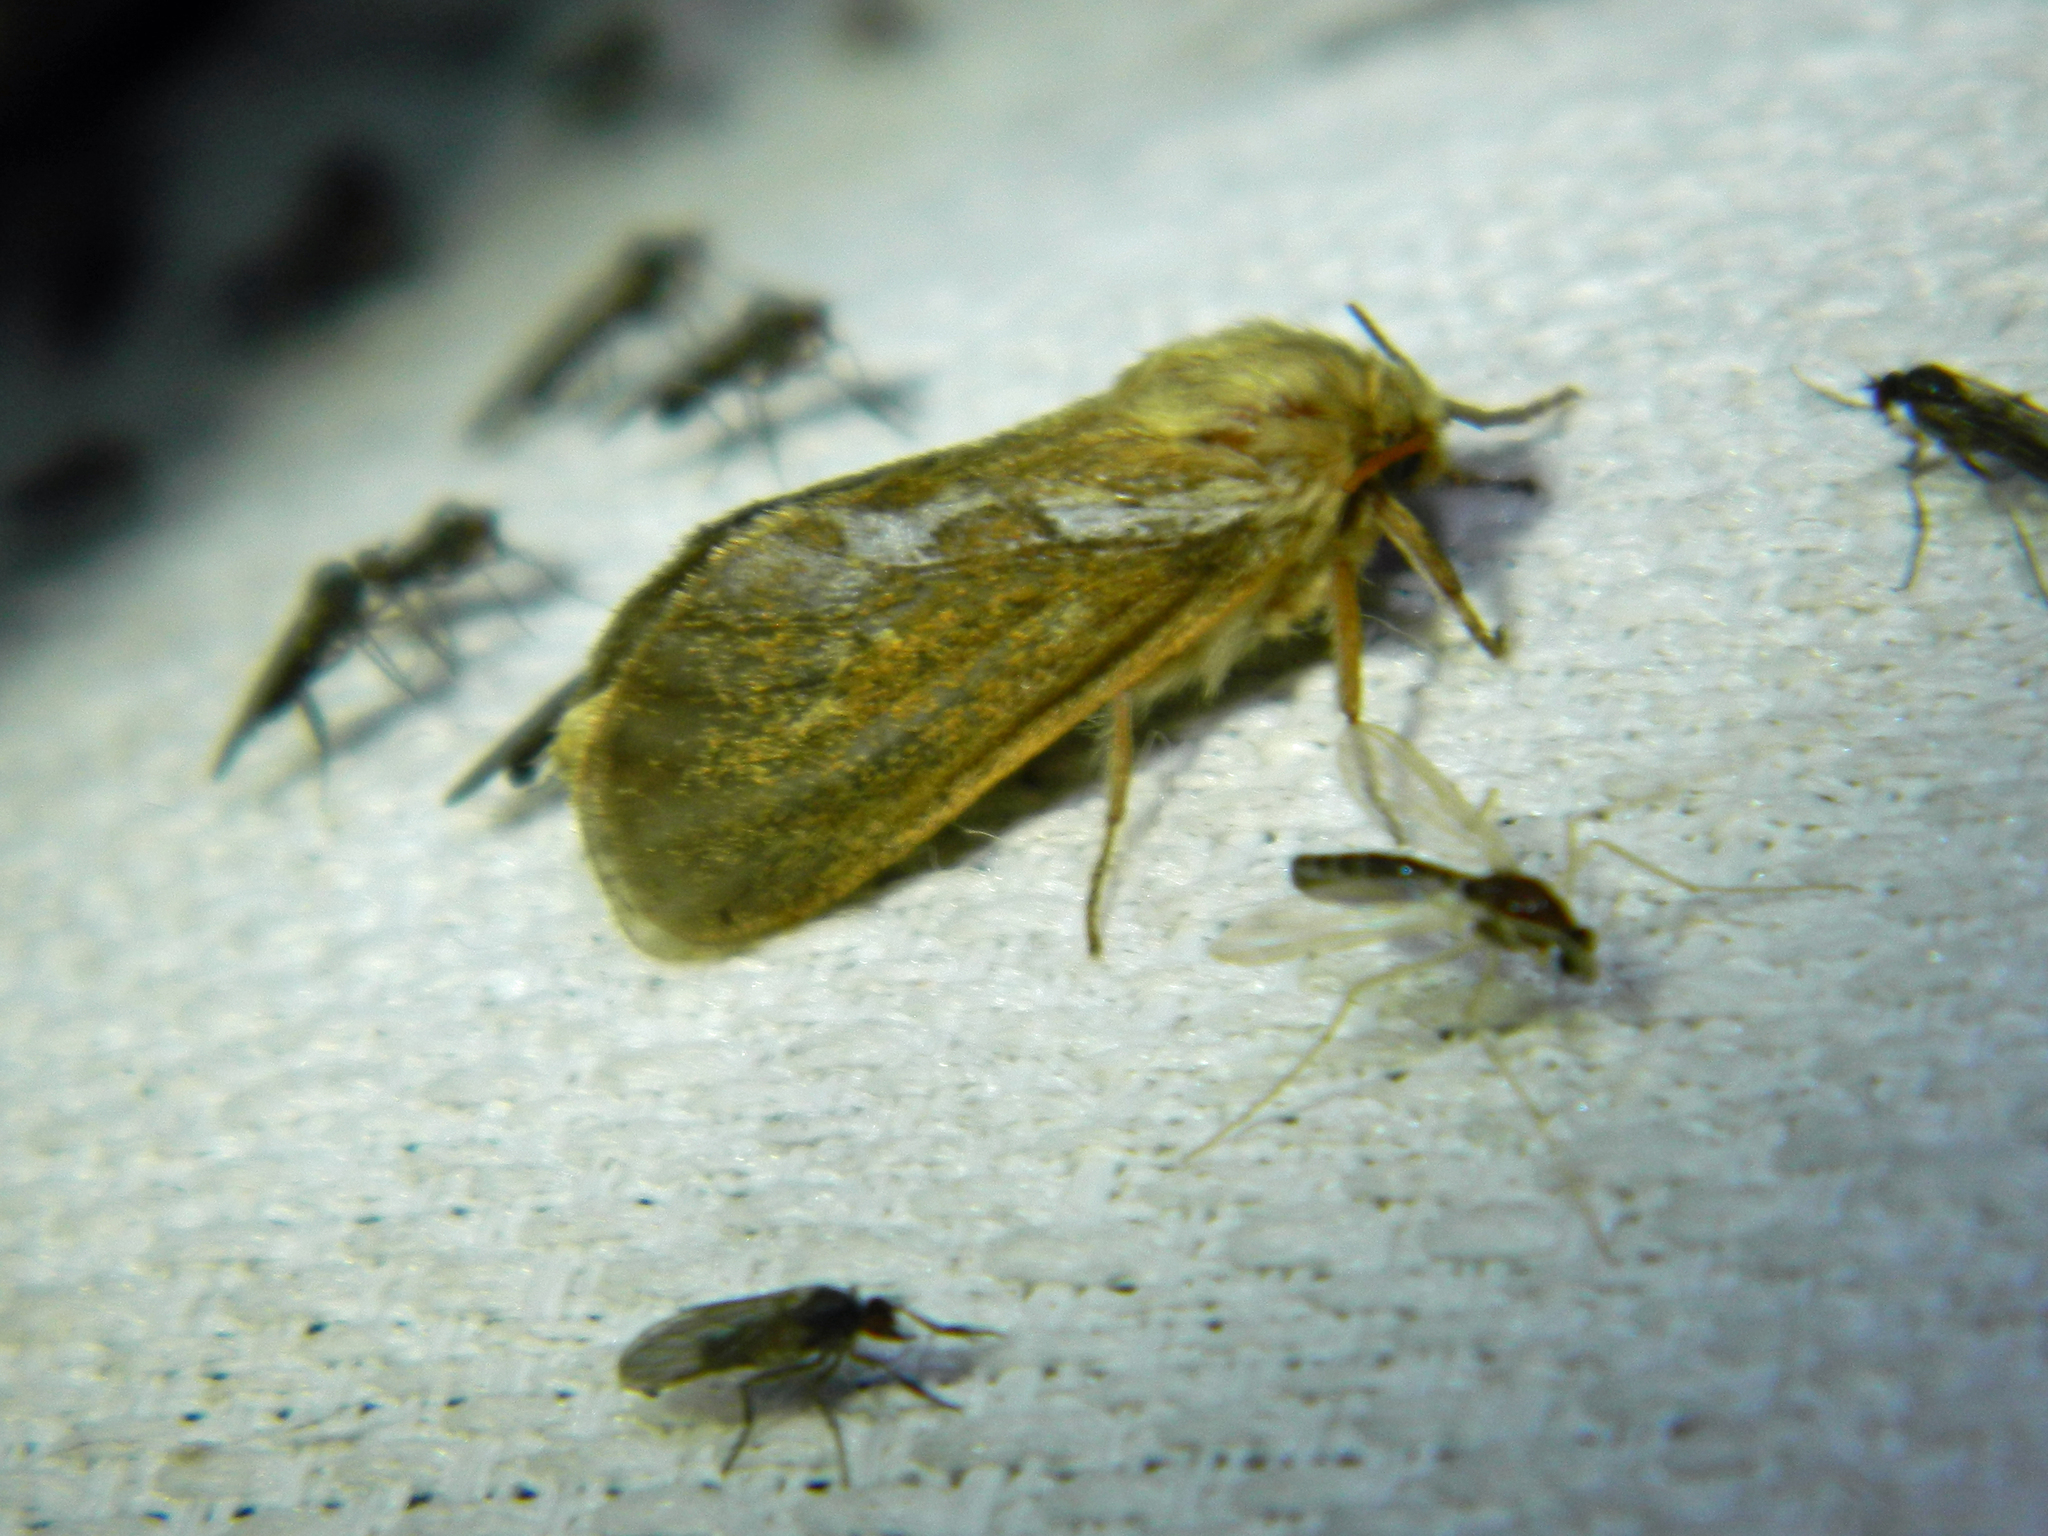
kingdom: Animalia
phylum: Arthropoda
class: Insecta
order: Lepidoptera
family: Hepialidae
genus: Korscheltellus
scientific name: Korscheltellus lupulina
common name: Common swift
